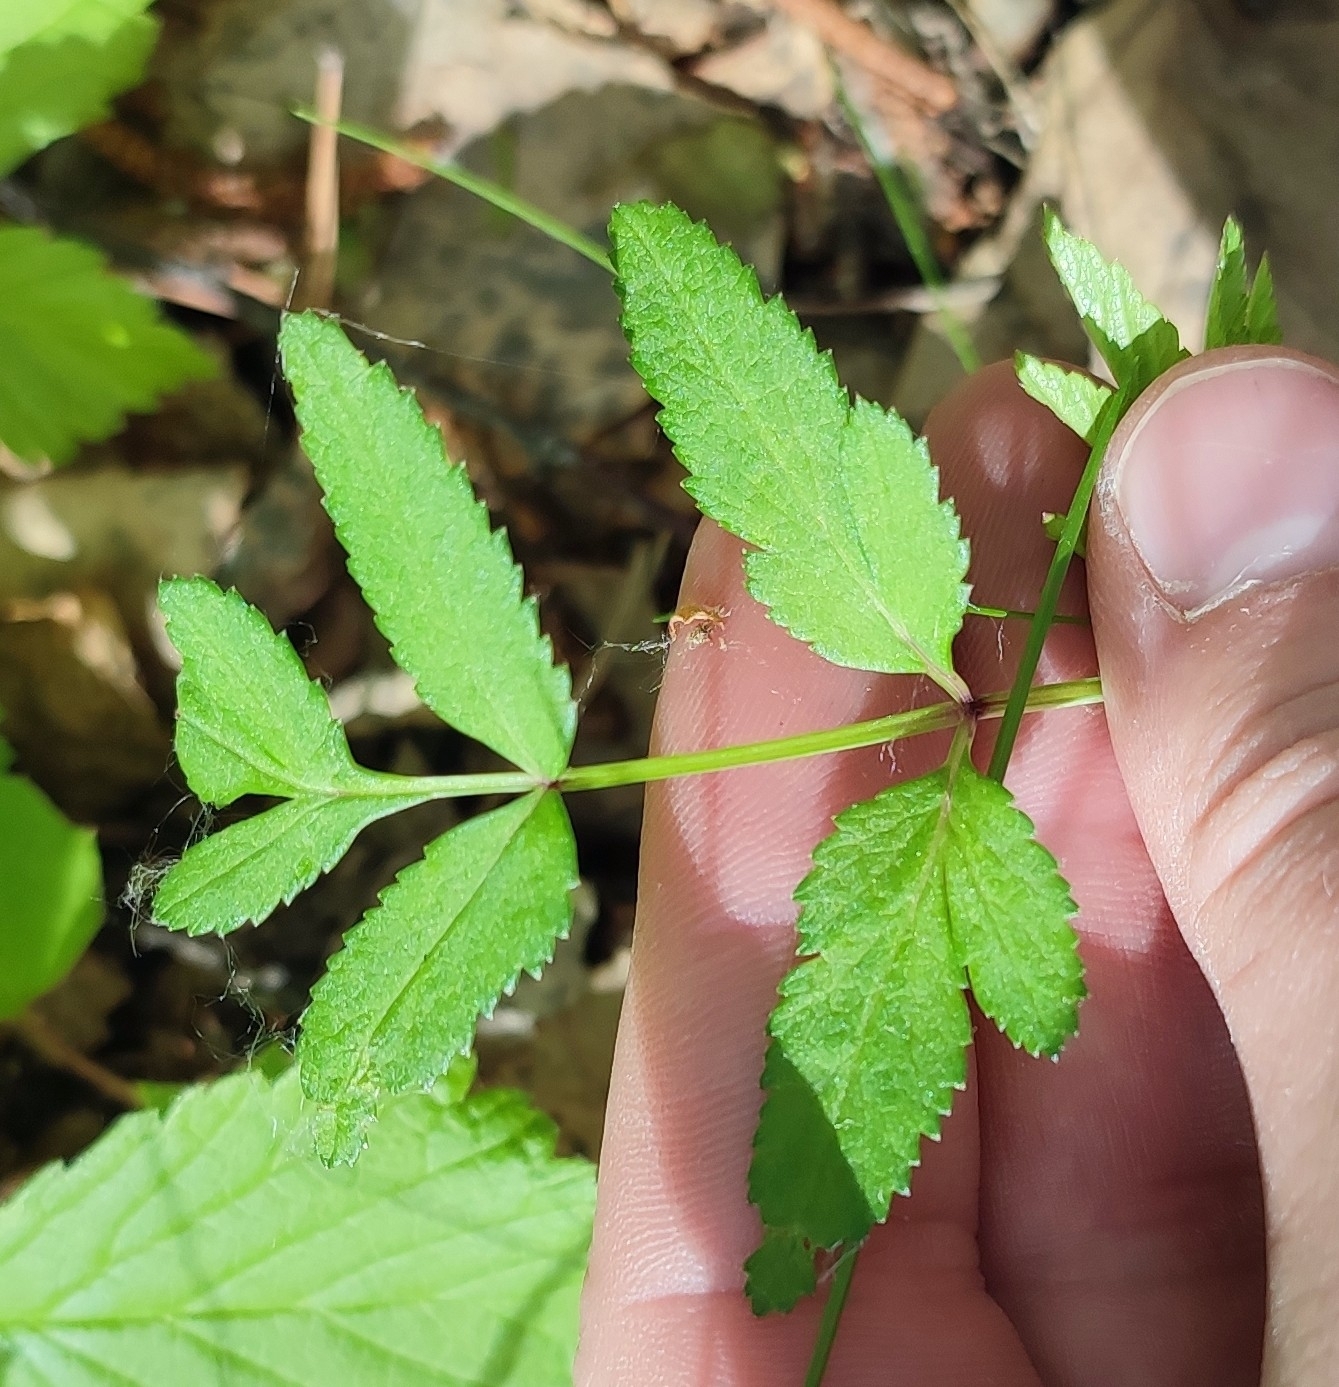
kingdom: Plantae
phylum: Tracheophyta
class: Magnoliopsida
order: Apiales
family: Apiaceae
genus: Angelica
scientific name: Angelica sylvestris
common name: Wild angelica
